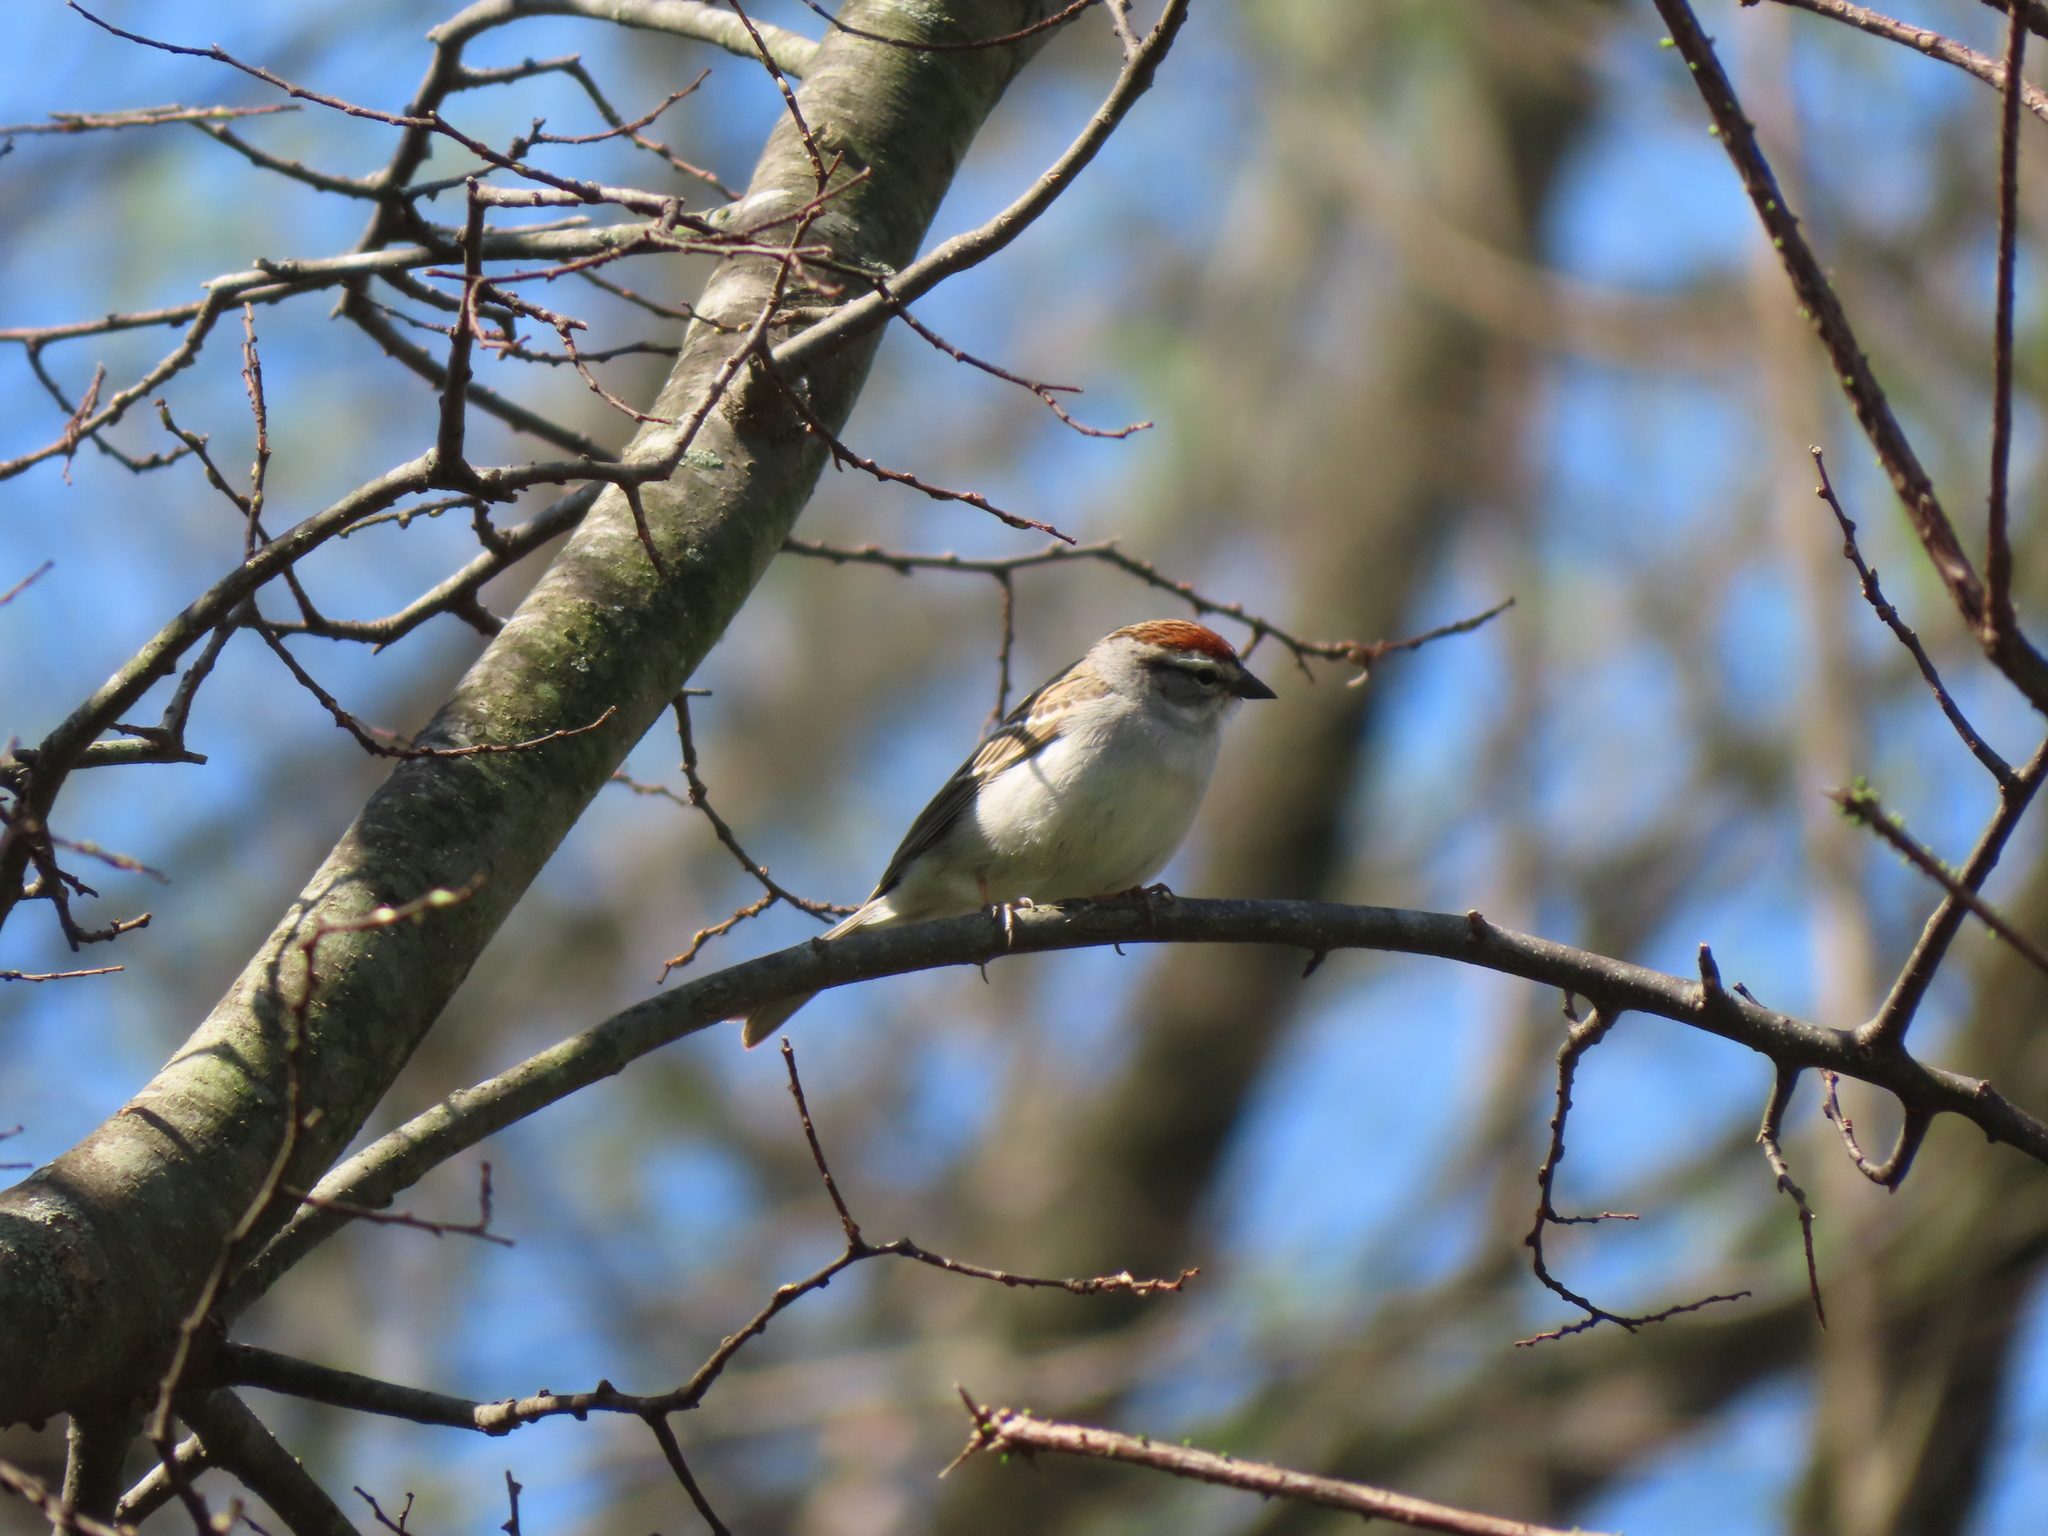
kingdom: Animalia
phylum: Chordata
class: Aves
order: Passeriformes
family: Passerellidae
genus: Spizella
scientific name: Spizella passerina
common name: Chipping sparrow
